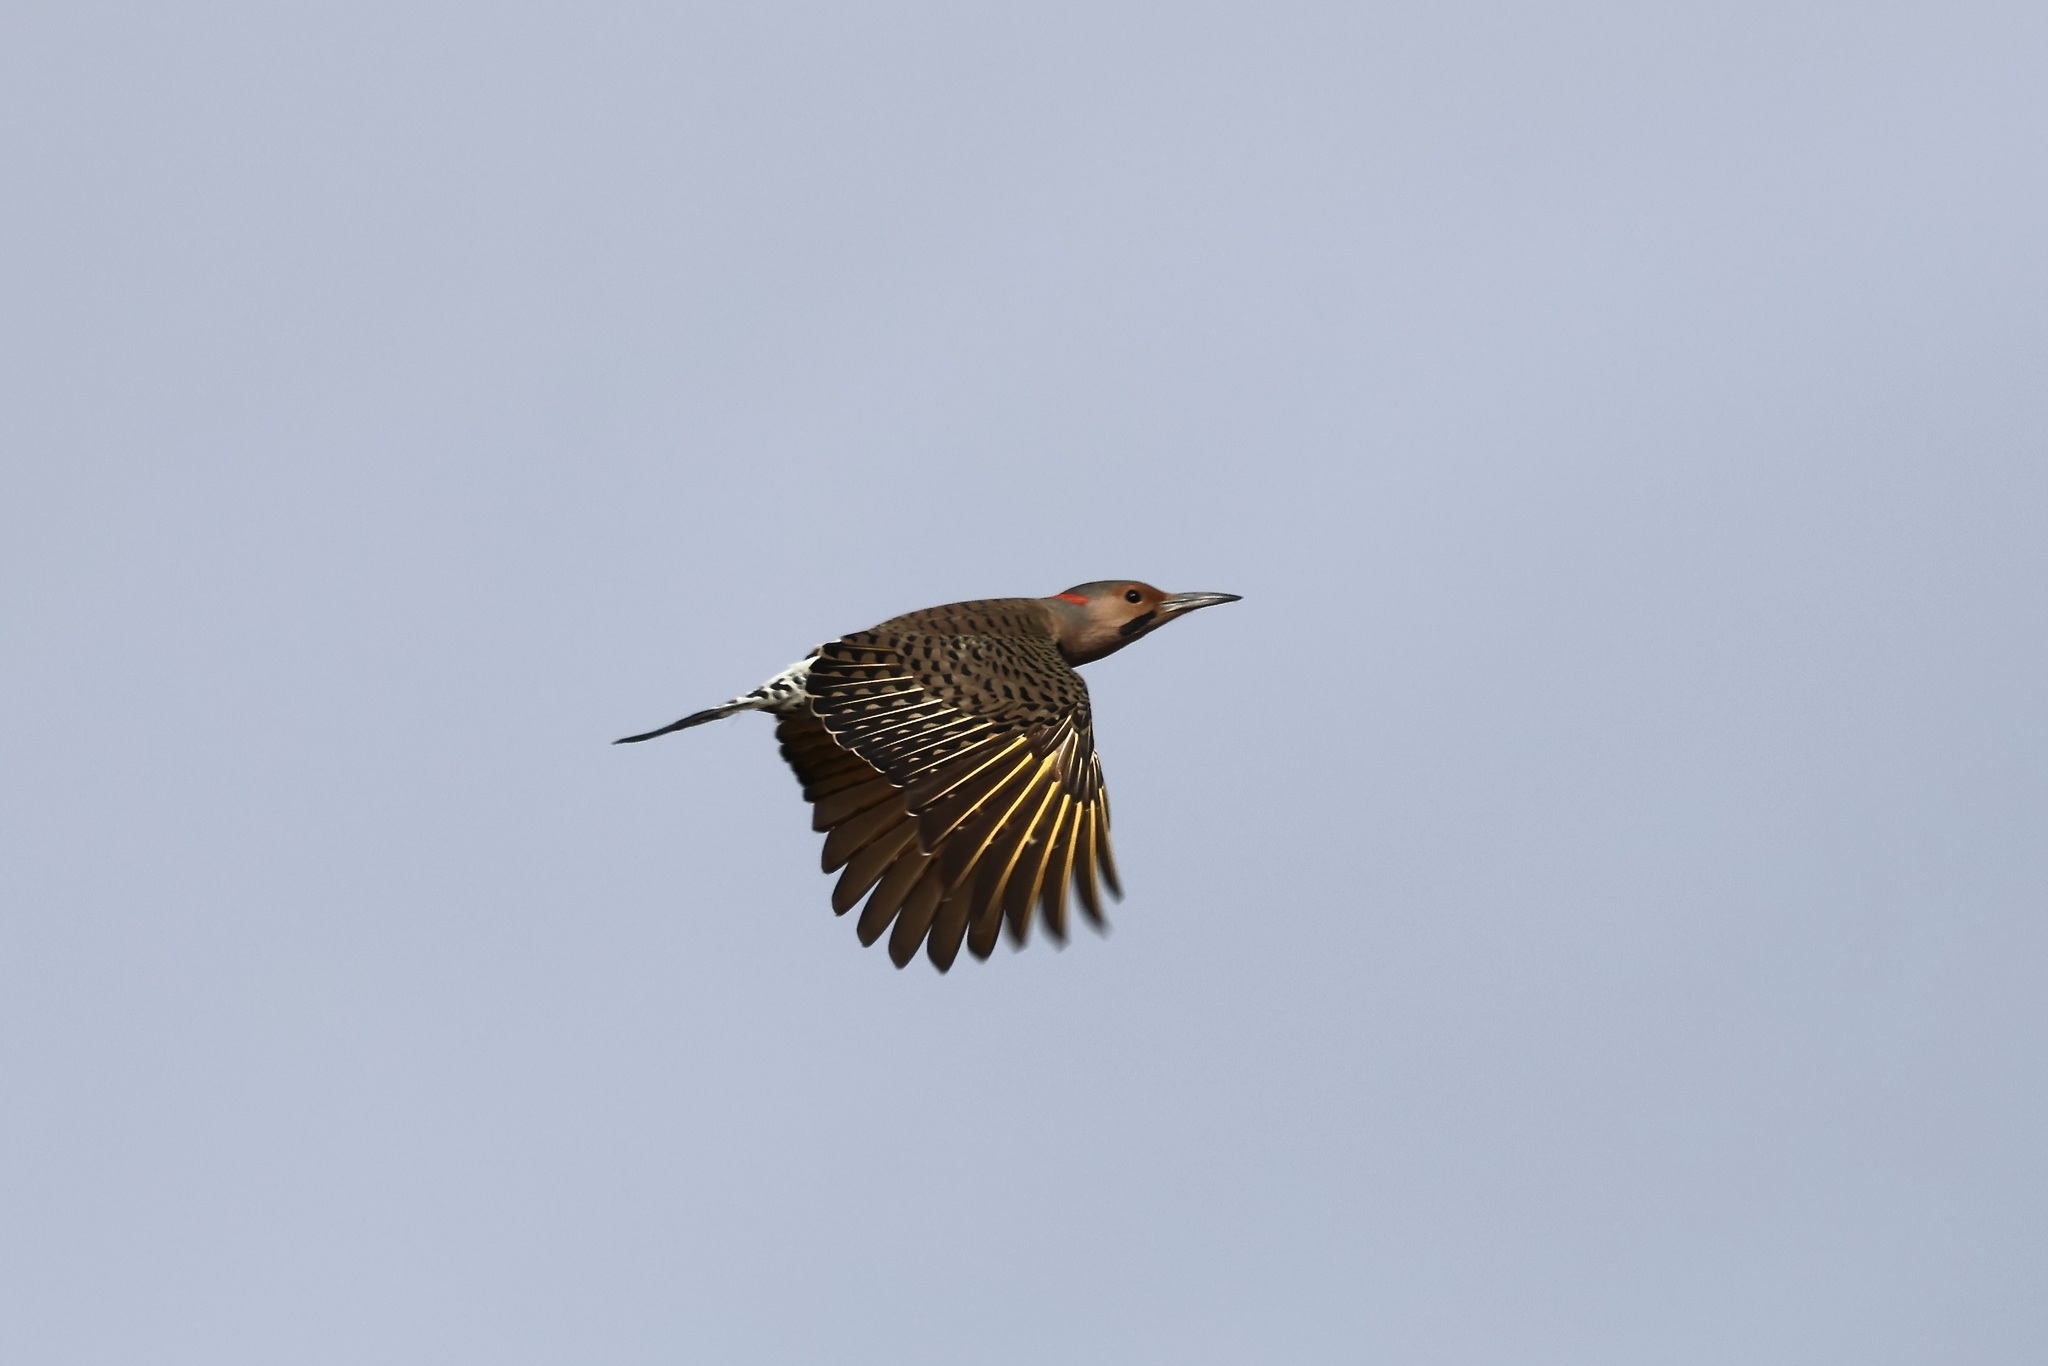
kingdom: Animalia
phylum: Chordata
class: Aves
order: Piciformes
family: Picidae
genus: Colaptes
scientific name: Colaptes auratus
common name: Northern flicker
